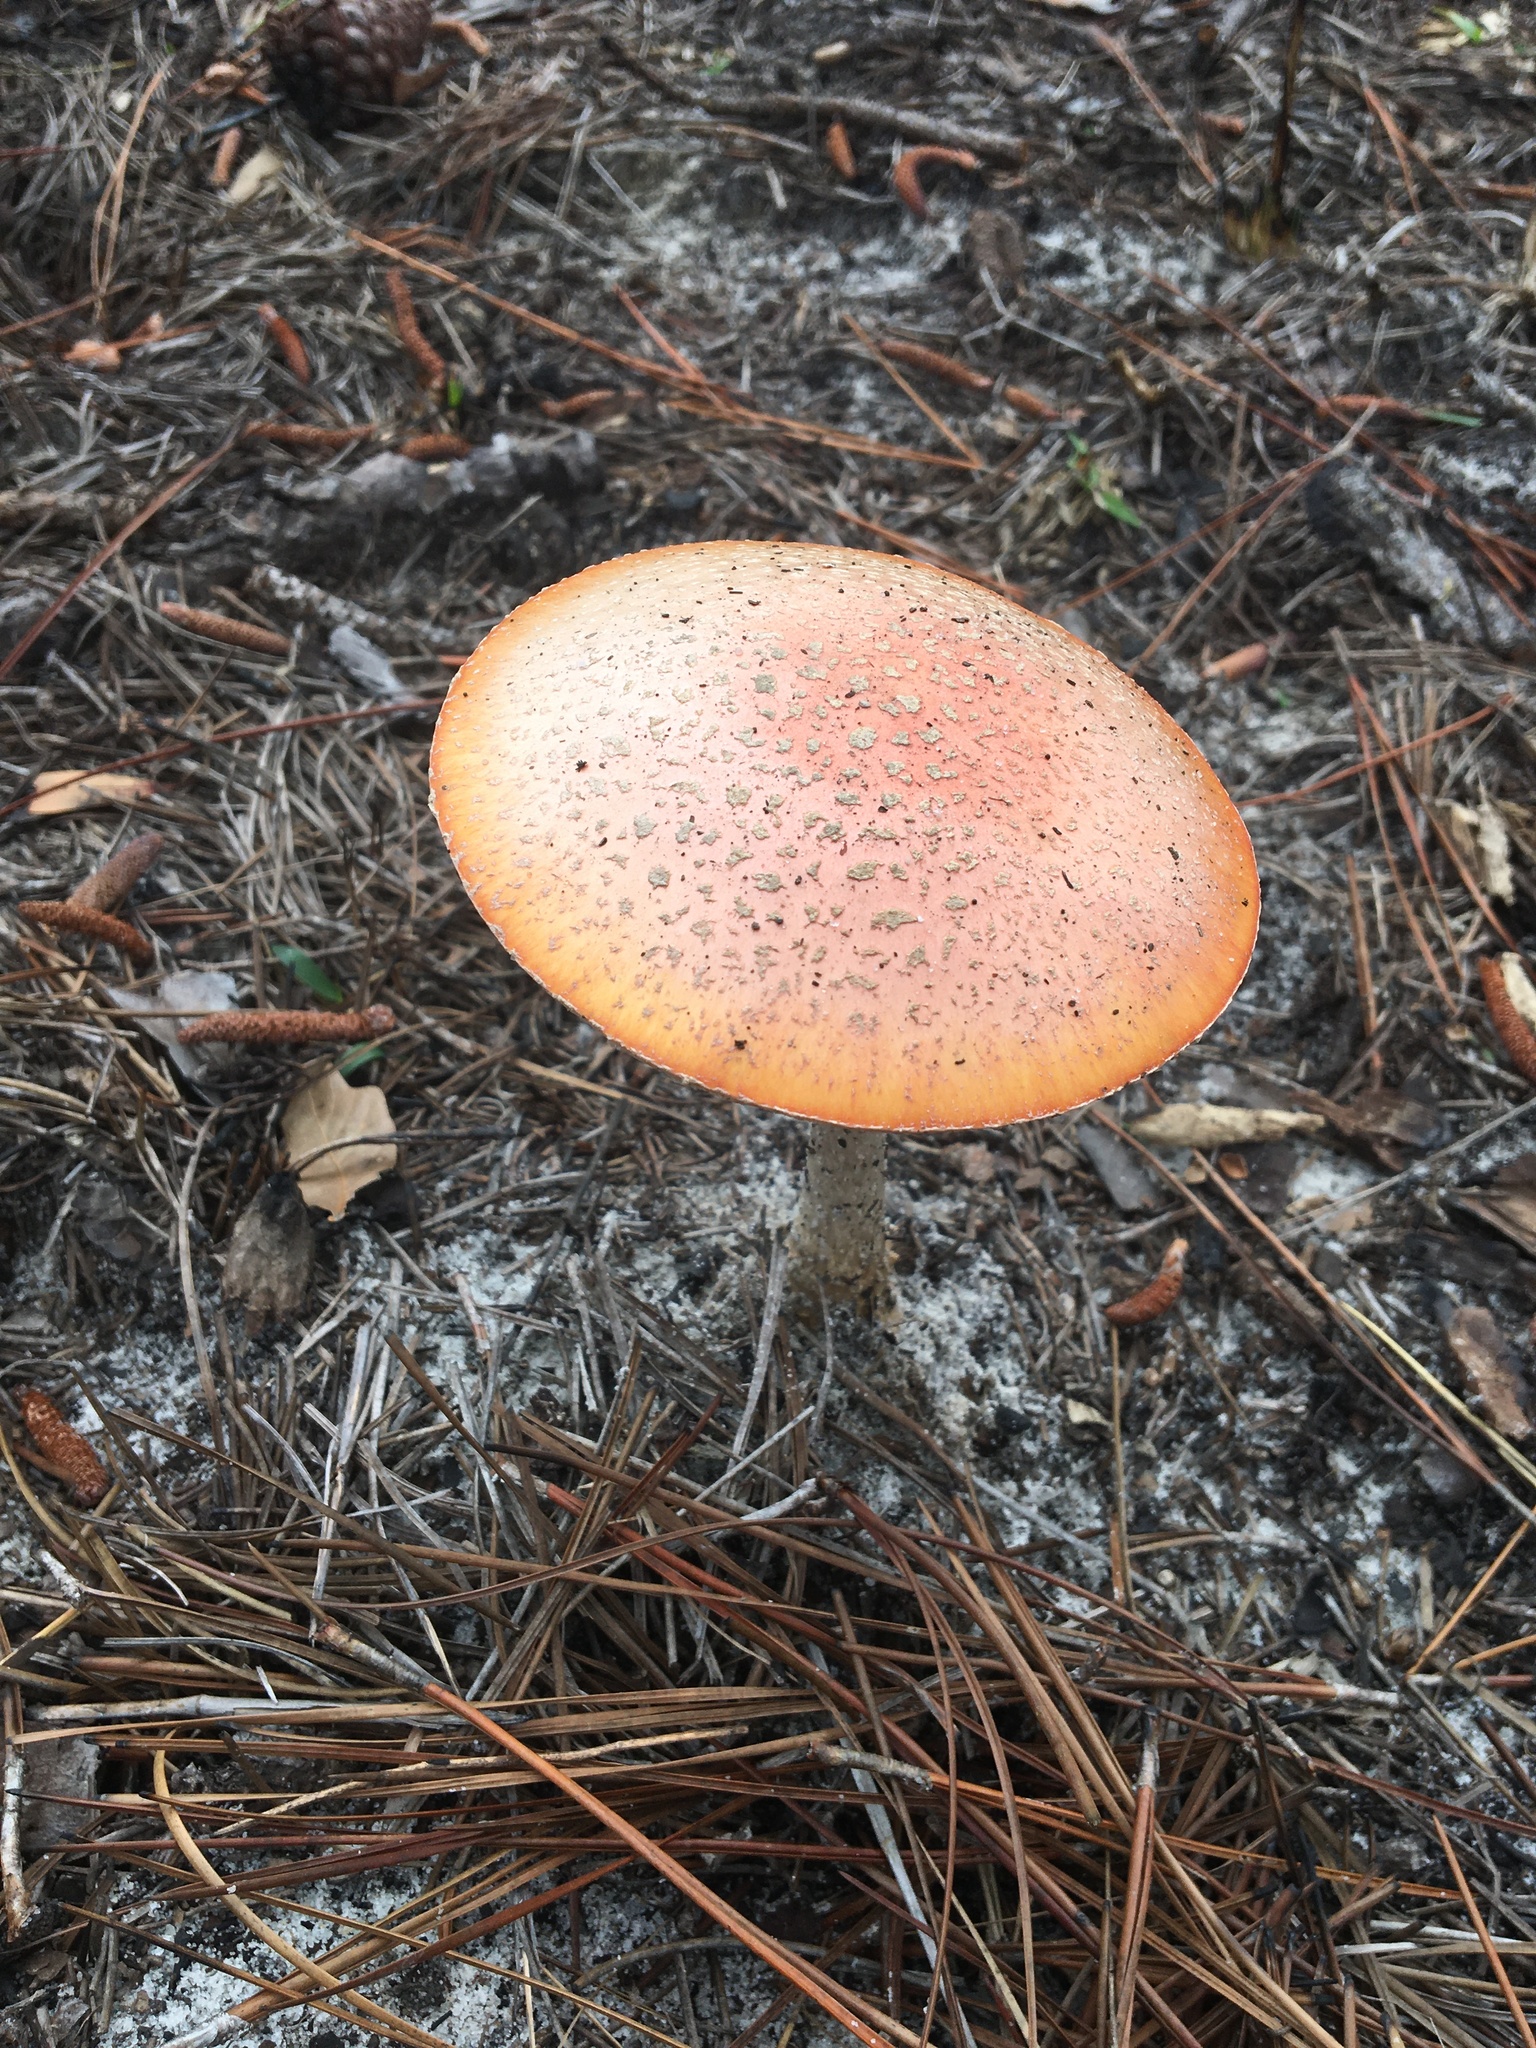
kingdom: Fungi
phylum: Basidiomycota
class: Agaricomycetes
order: Agaricales
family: Amanitaceae
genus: Amanita
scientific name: Amanita persicina
